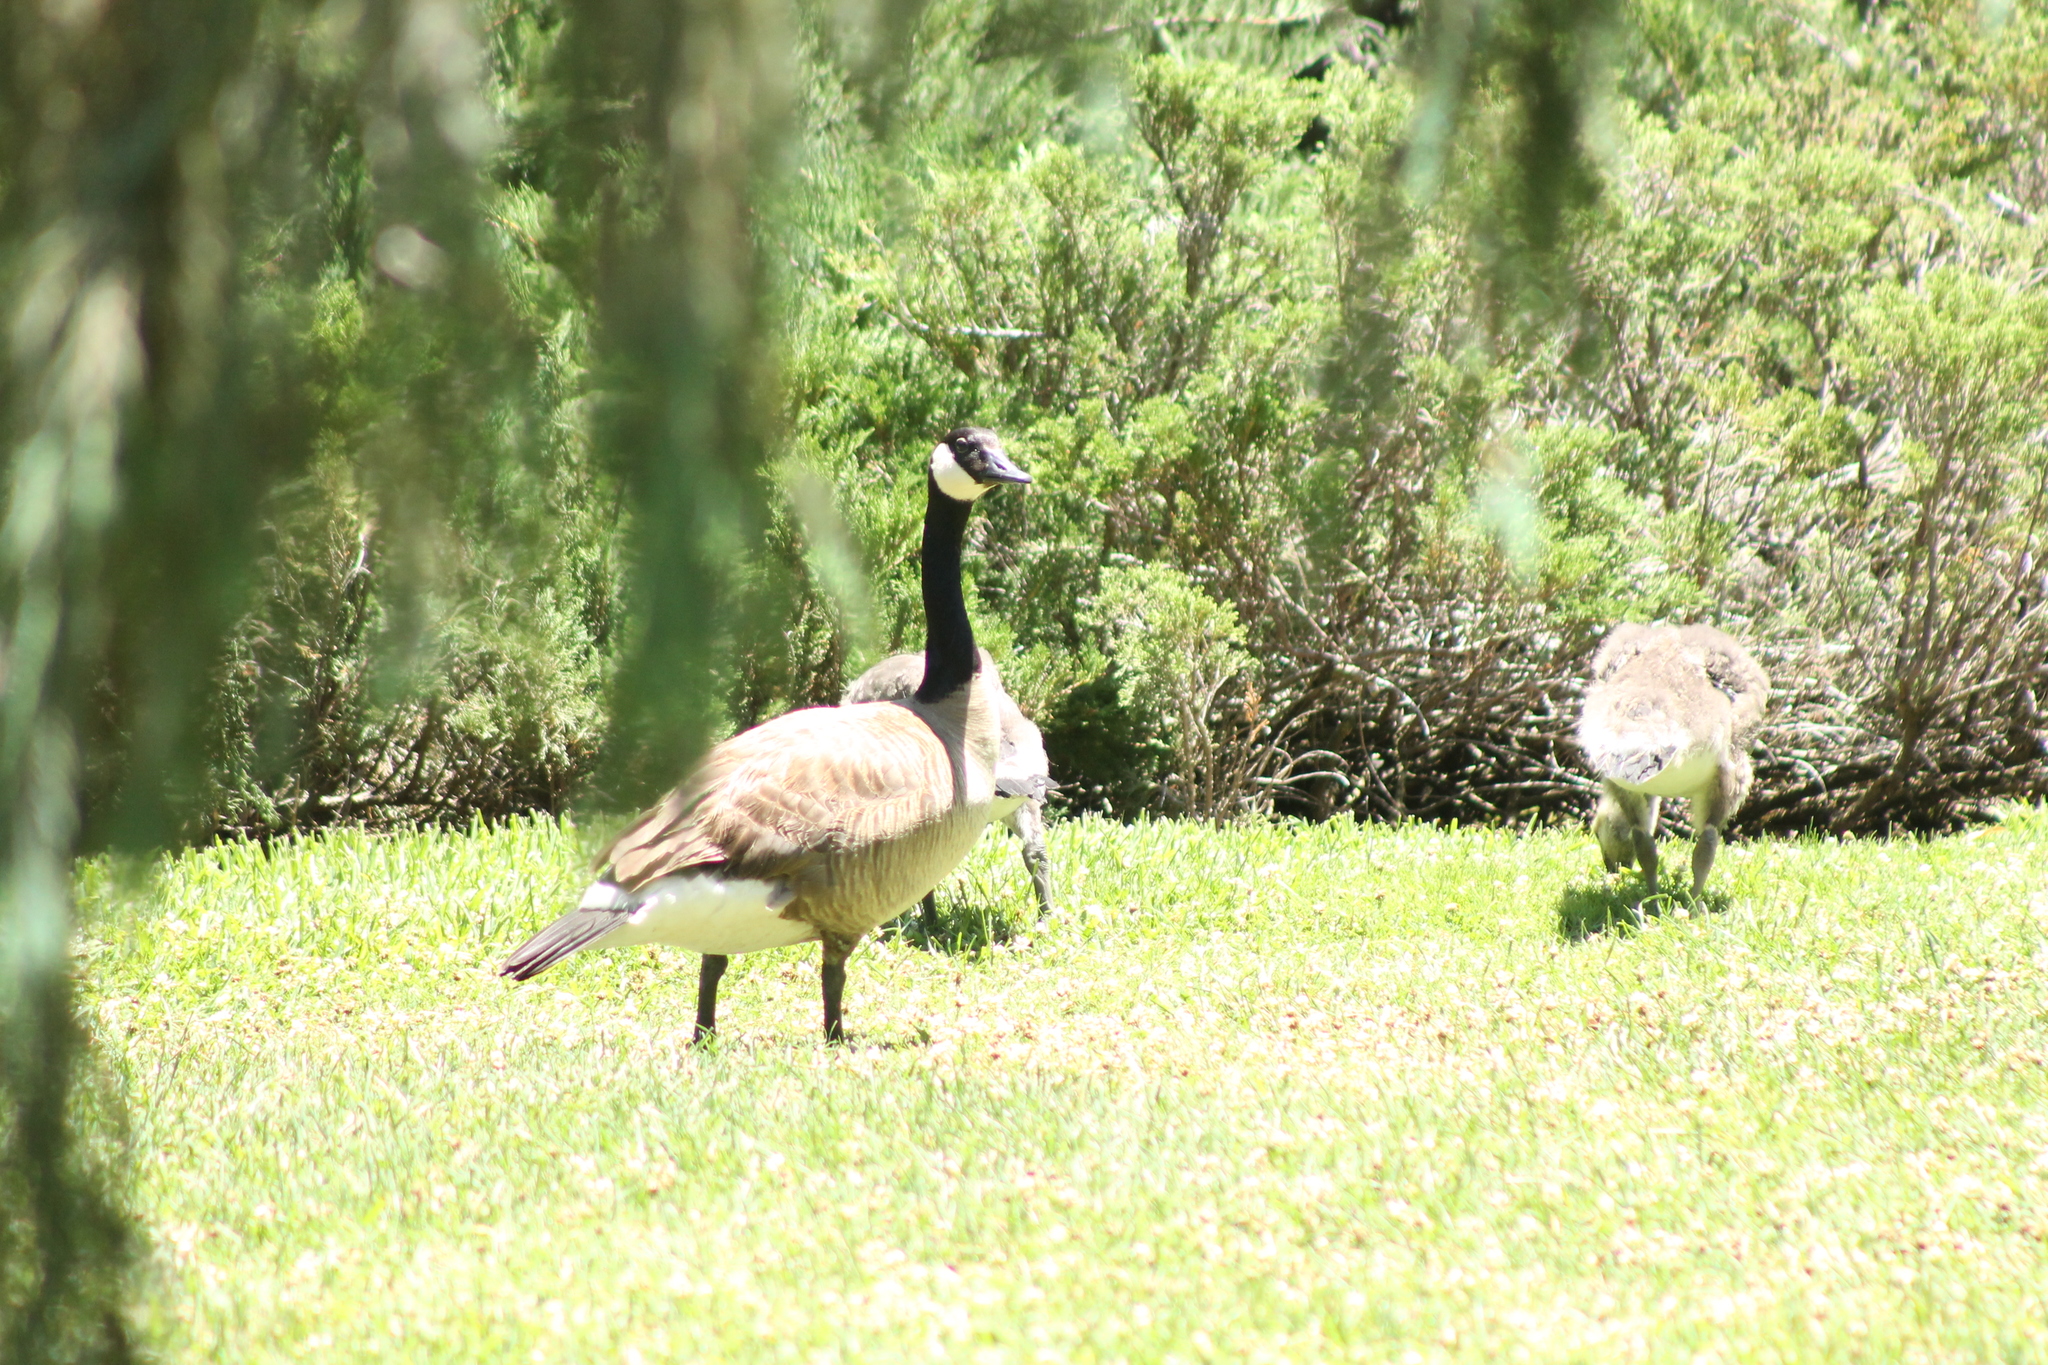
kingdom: Animalia
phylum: Chordata
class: Aves
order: Anseriformes
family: Anatidae
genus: Branta
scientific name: Branta canadensis
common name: Canada goose
